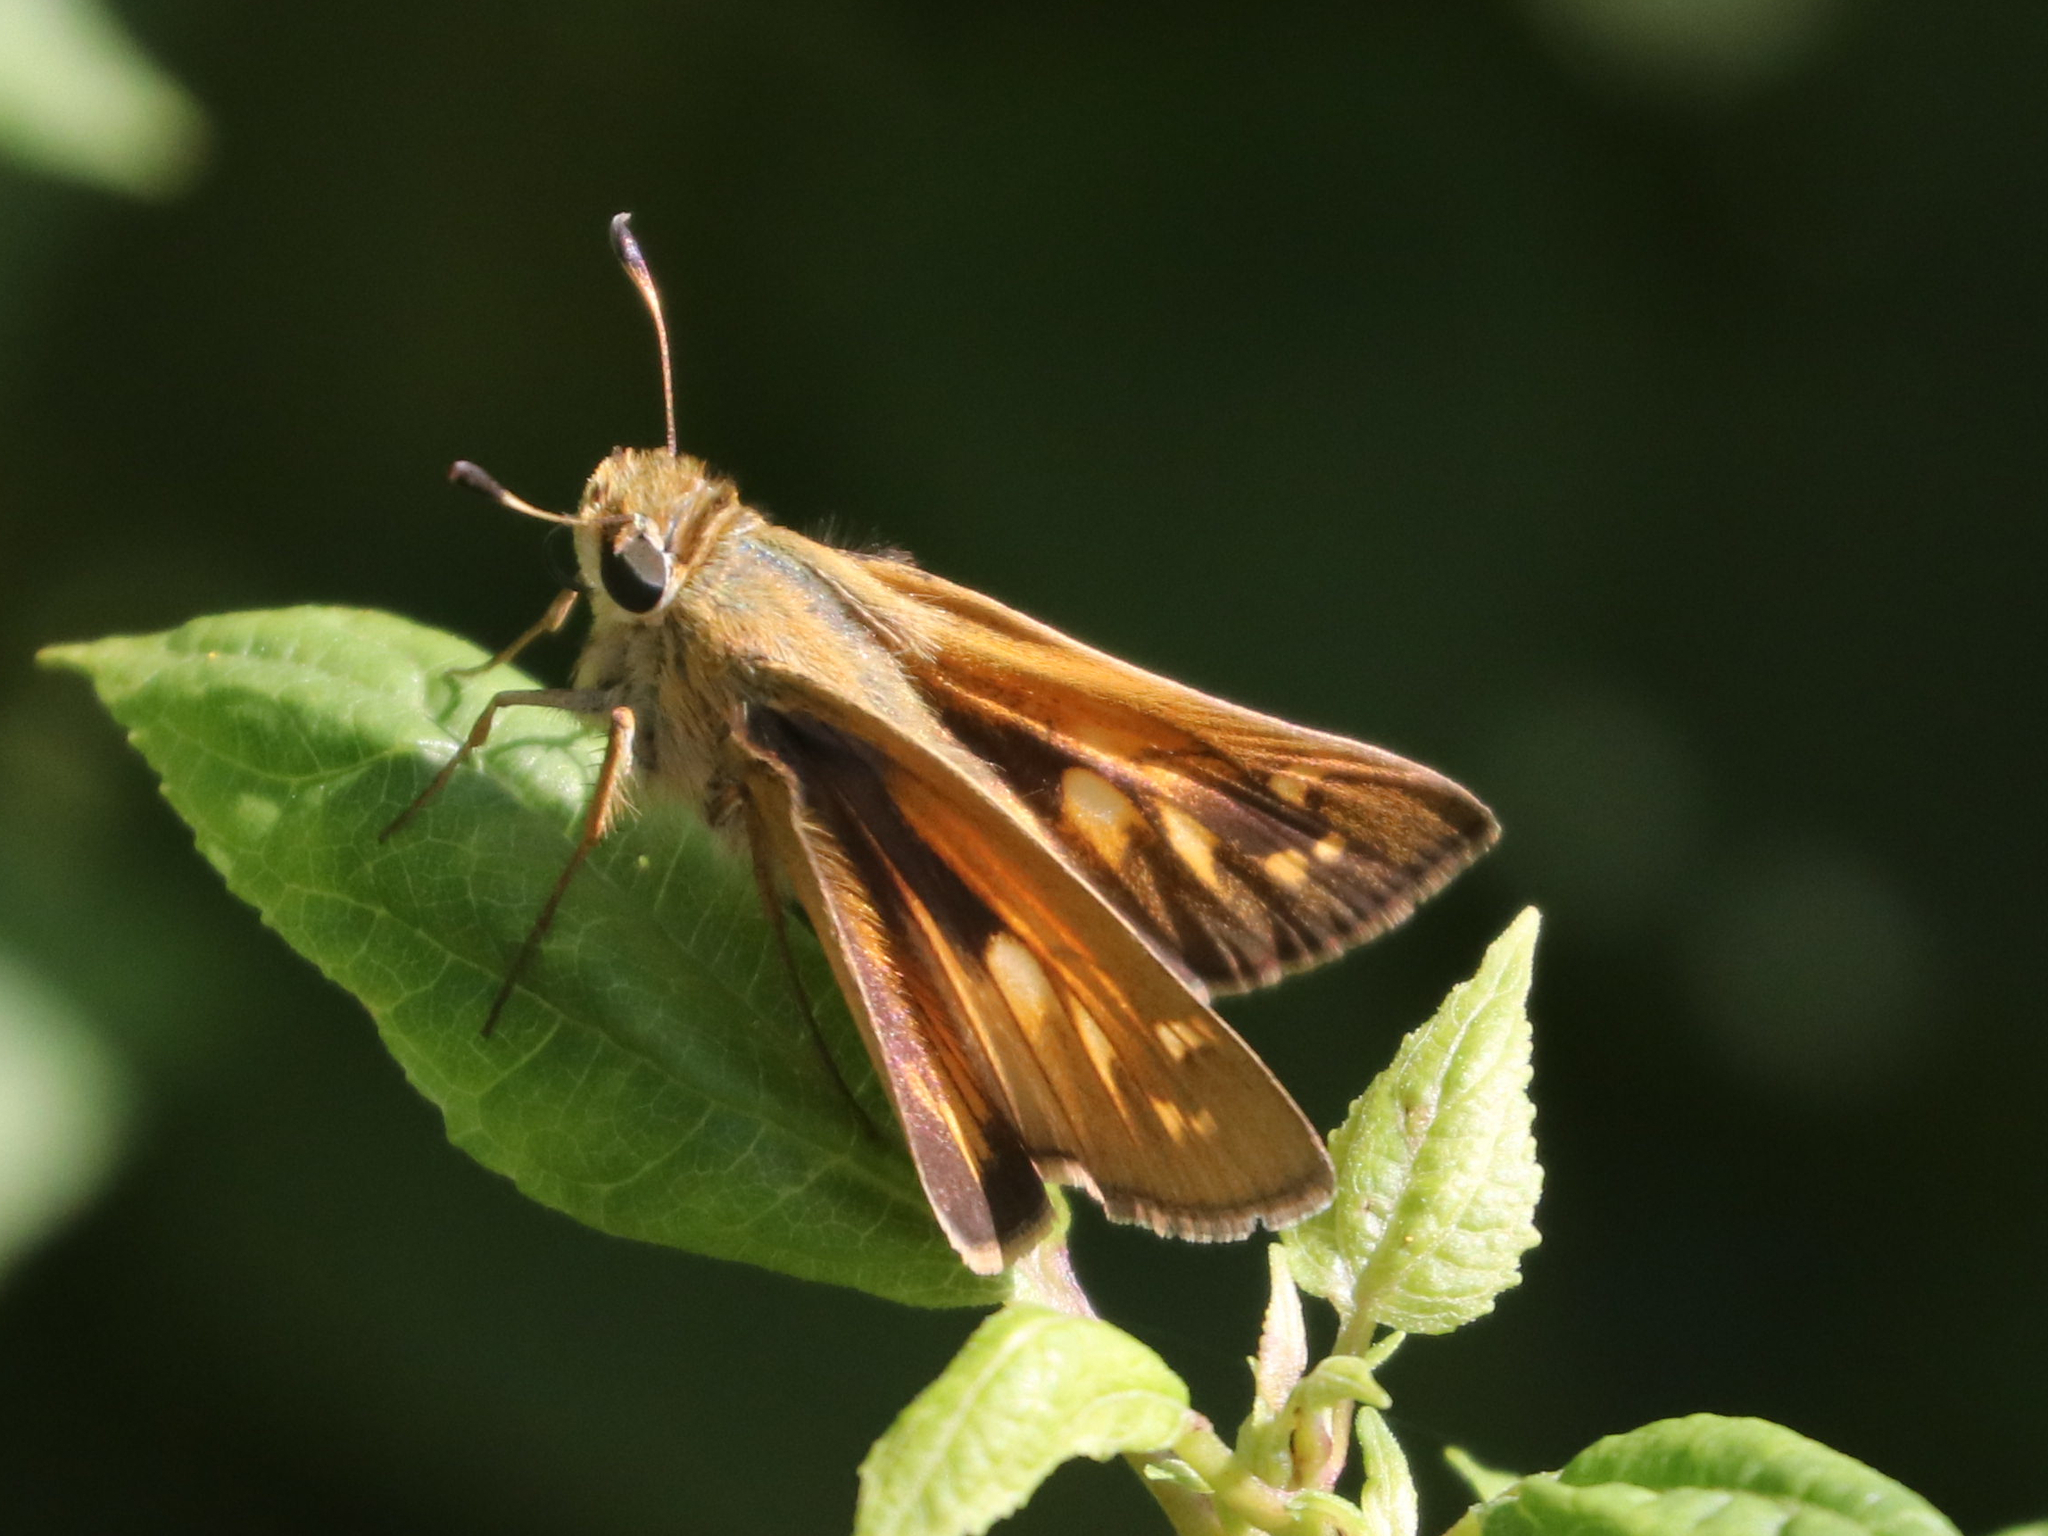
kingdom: Animalia
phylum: Arthropoda
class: Insecta
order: Lepidoptera
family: Hesperiidae
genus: Atalopedes
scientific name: Atalopedes
